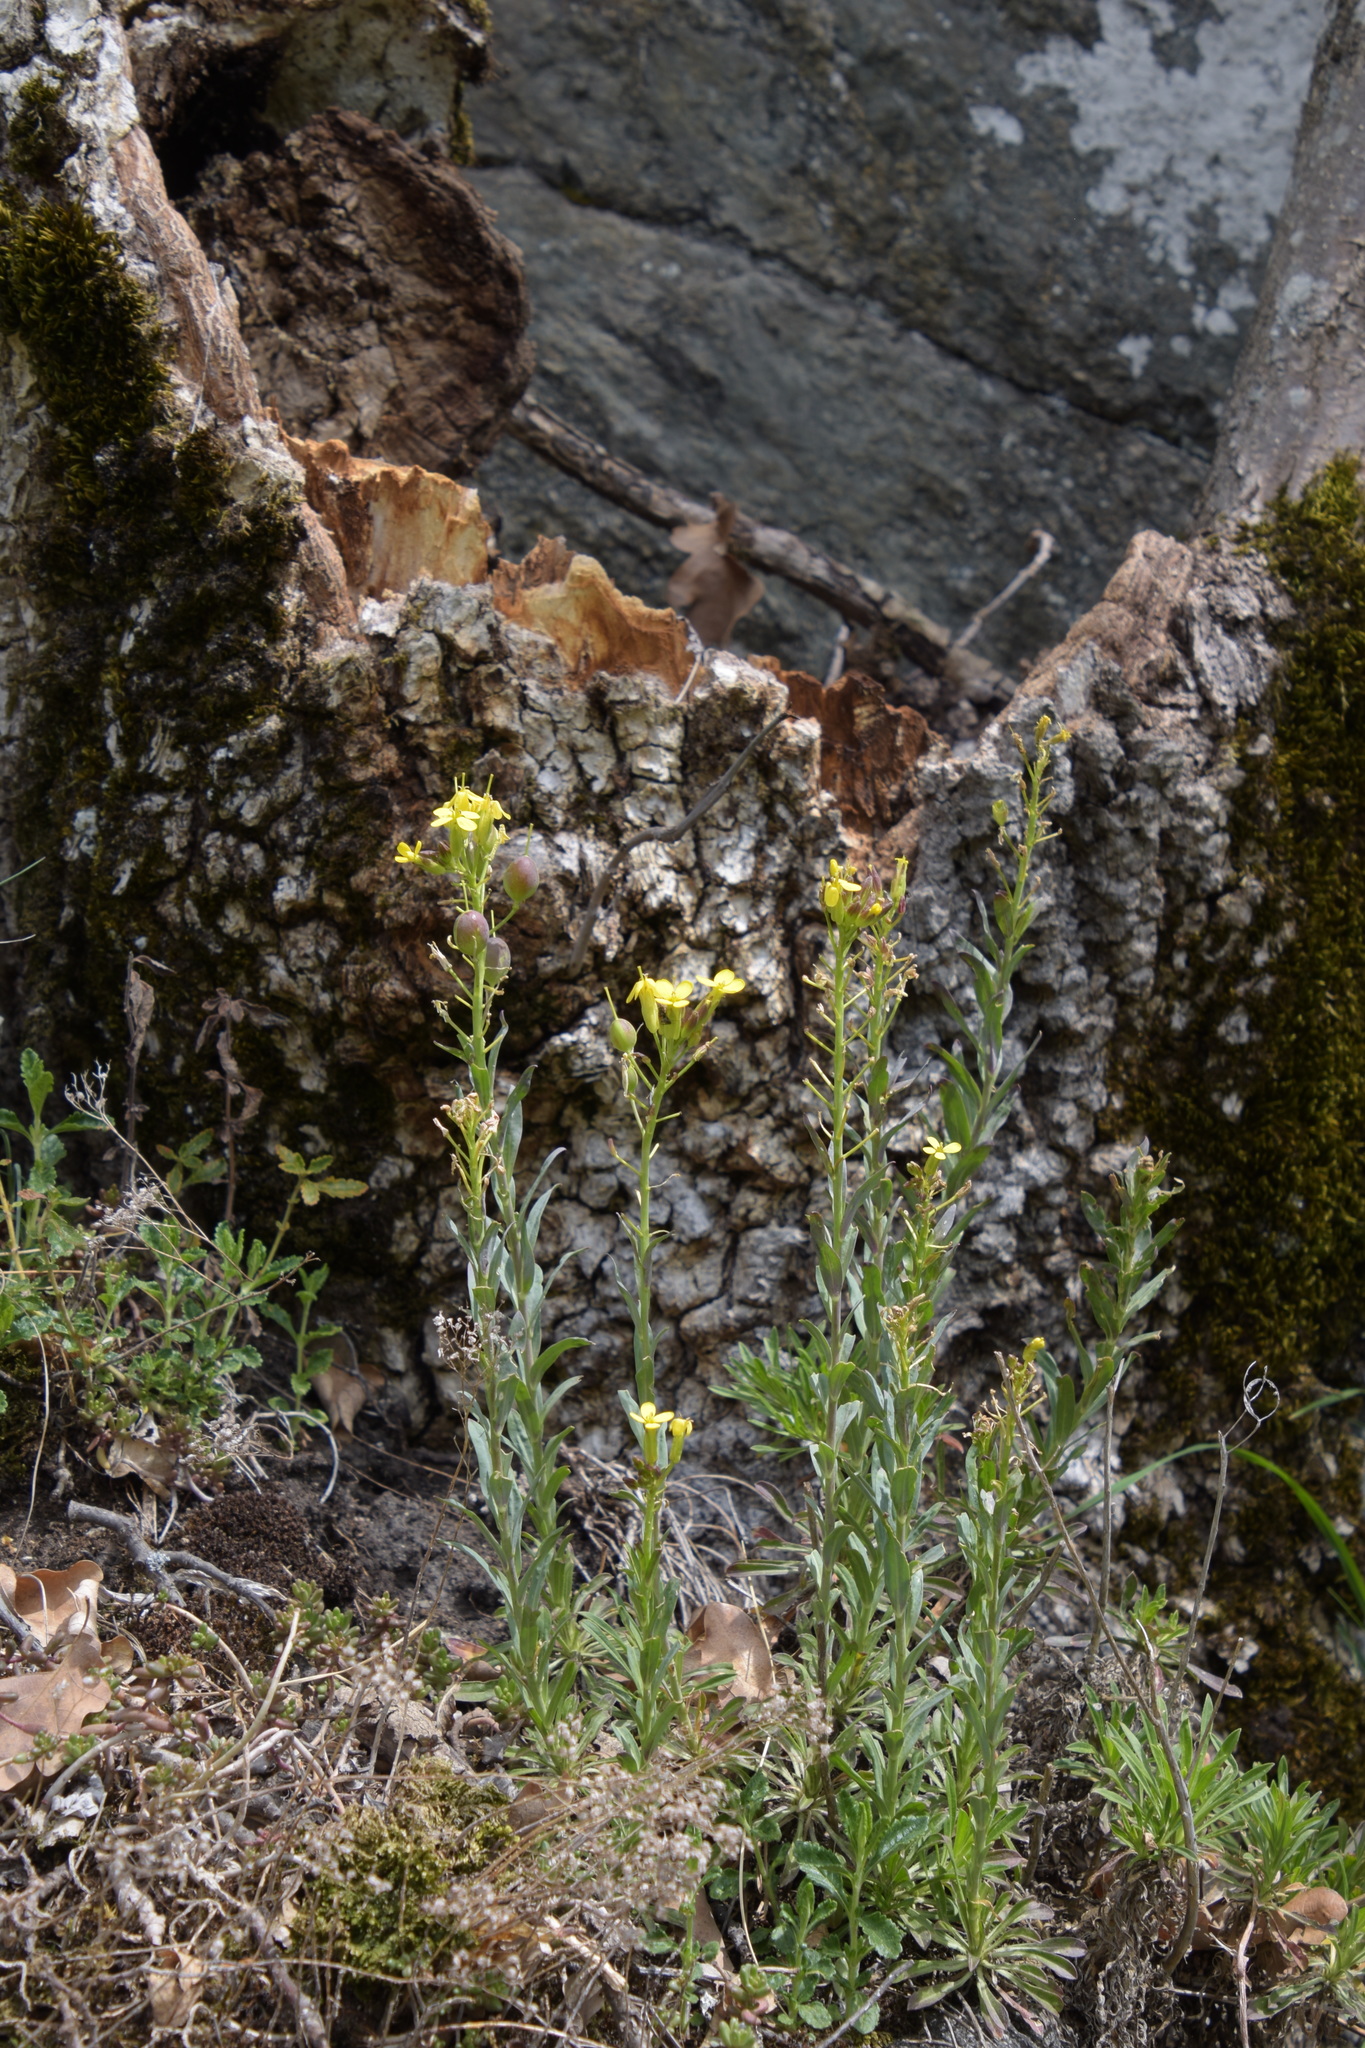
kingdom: Plantae
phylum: Tracheophyta
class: Magnoliopsida
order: Brassicales
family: Brassicaceae
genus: Alyssoides
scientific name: Alyssoides utriculata
